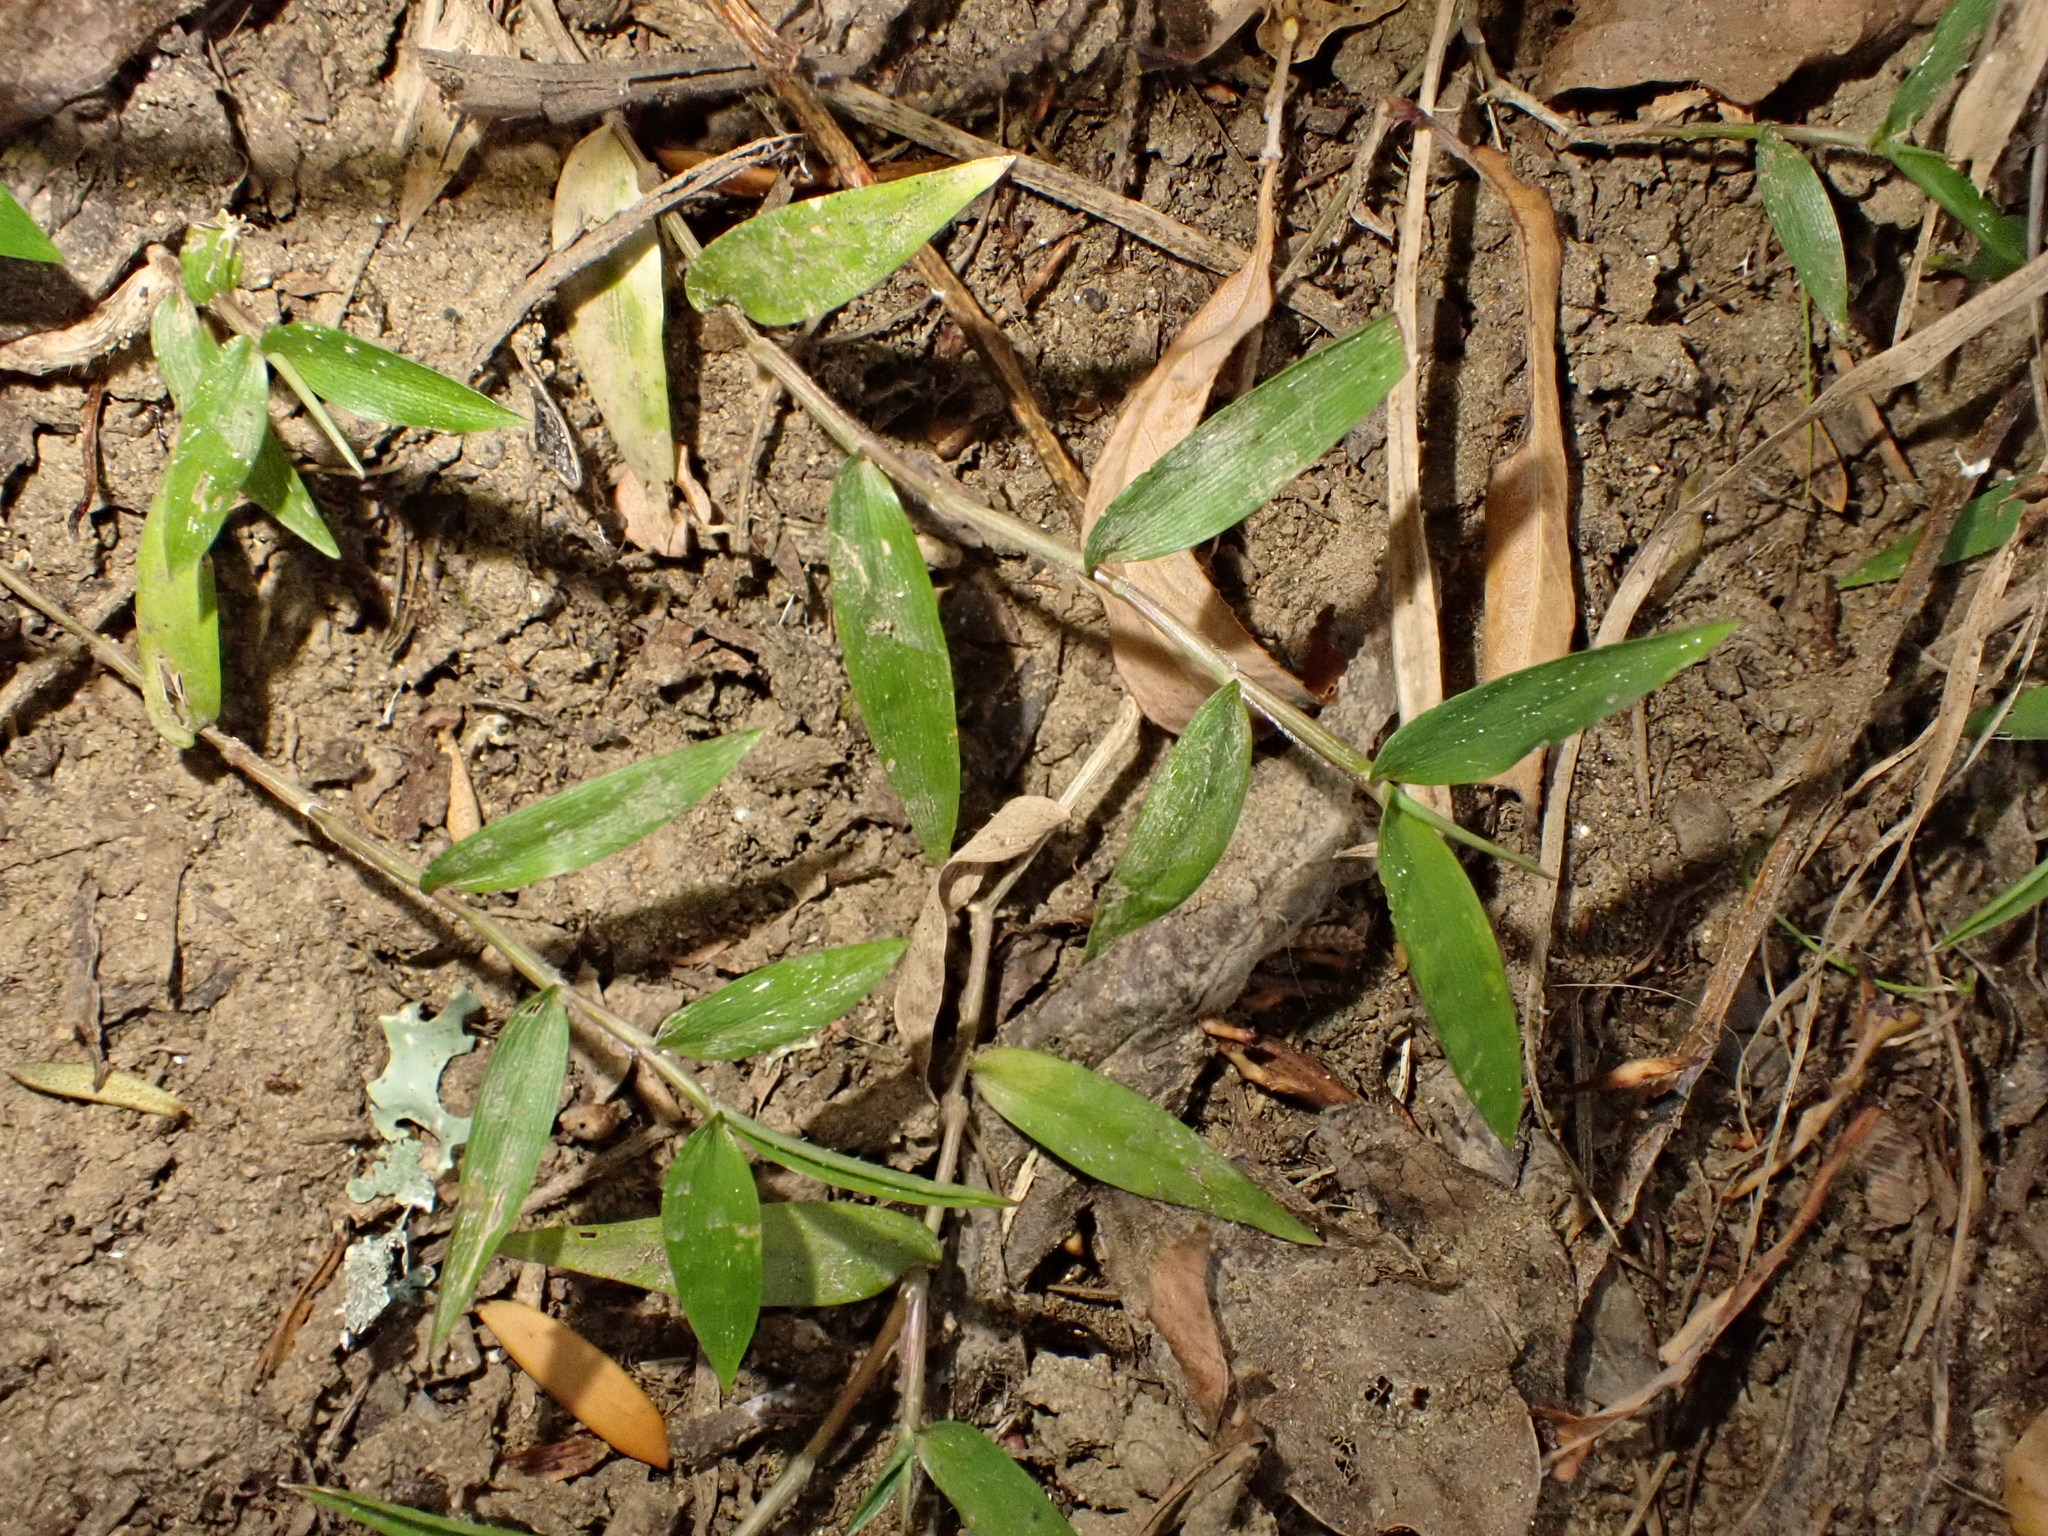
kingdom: Plantae
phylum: Tracheophyta
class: Liliopsida
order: Poales
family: Poaceae
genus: Oplismenus
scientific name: Oplismenus hirtellus
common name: Basketgrass
